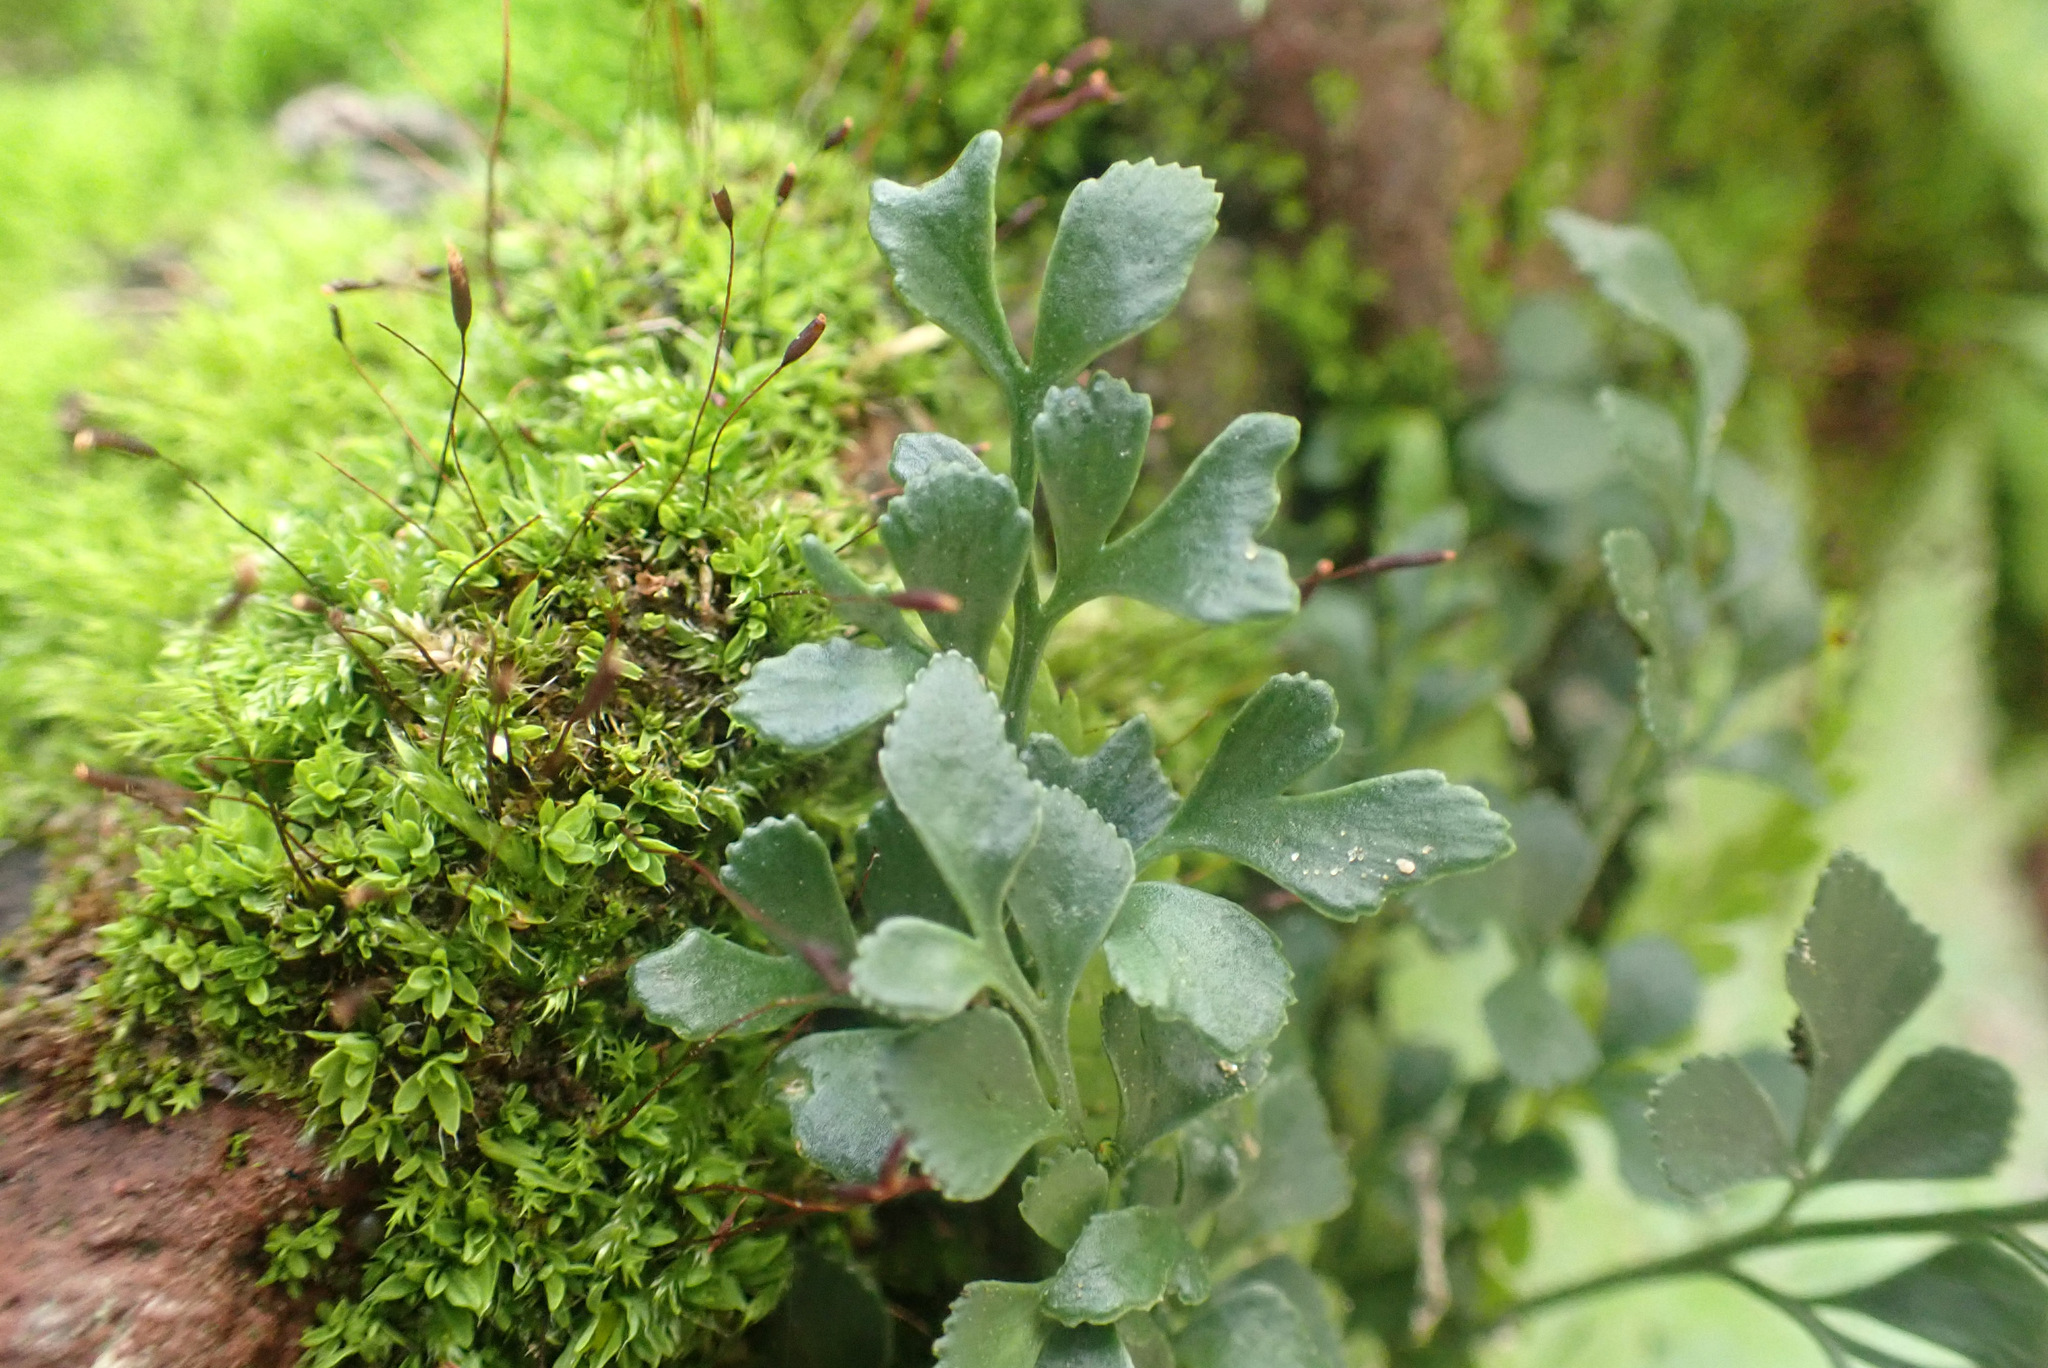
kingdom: Plantae
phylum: Tracheophyta
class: Polypodiopsida
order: Polypodiales
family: Aspleniaceae
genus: Asplenium
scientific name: Asplenium ruta-muraria
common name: Wall-rue
